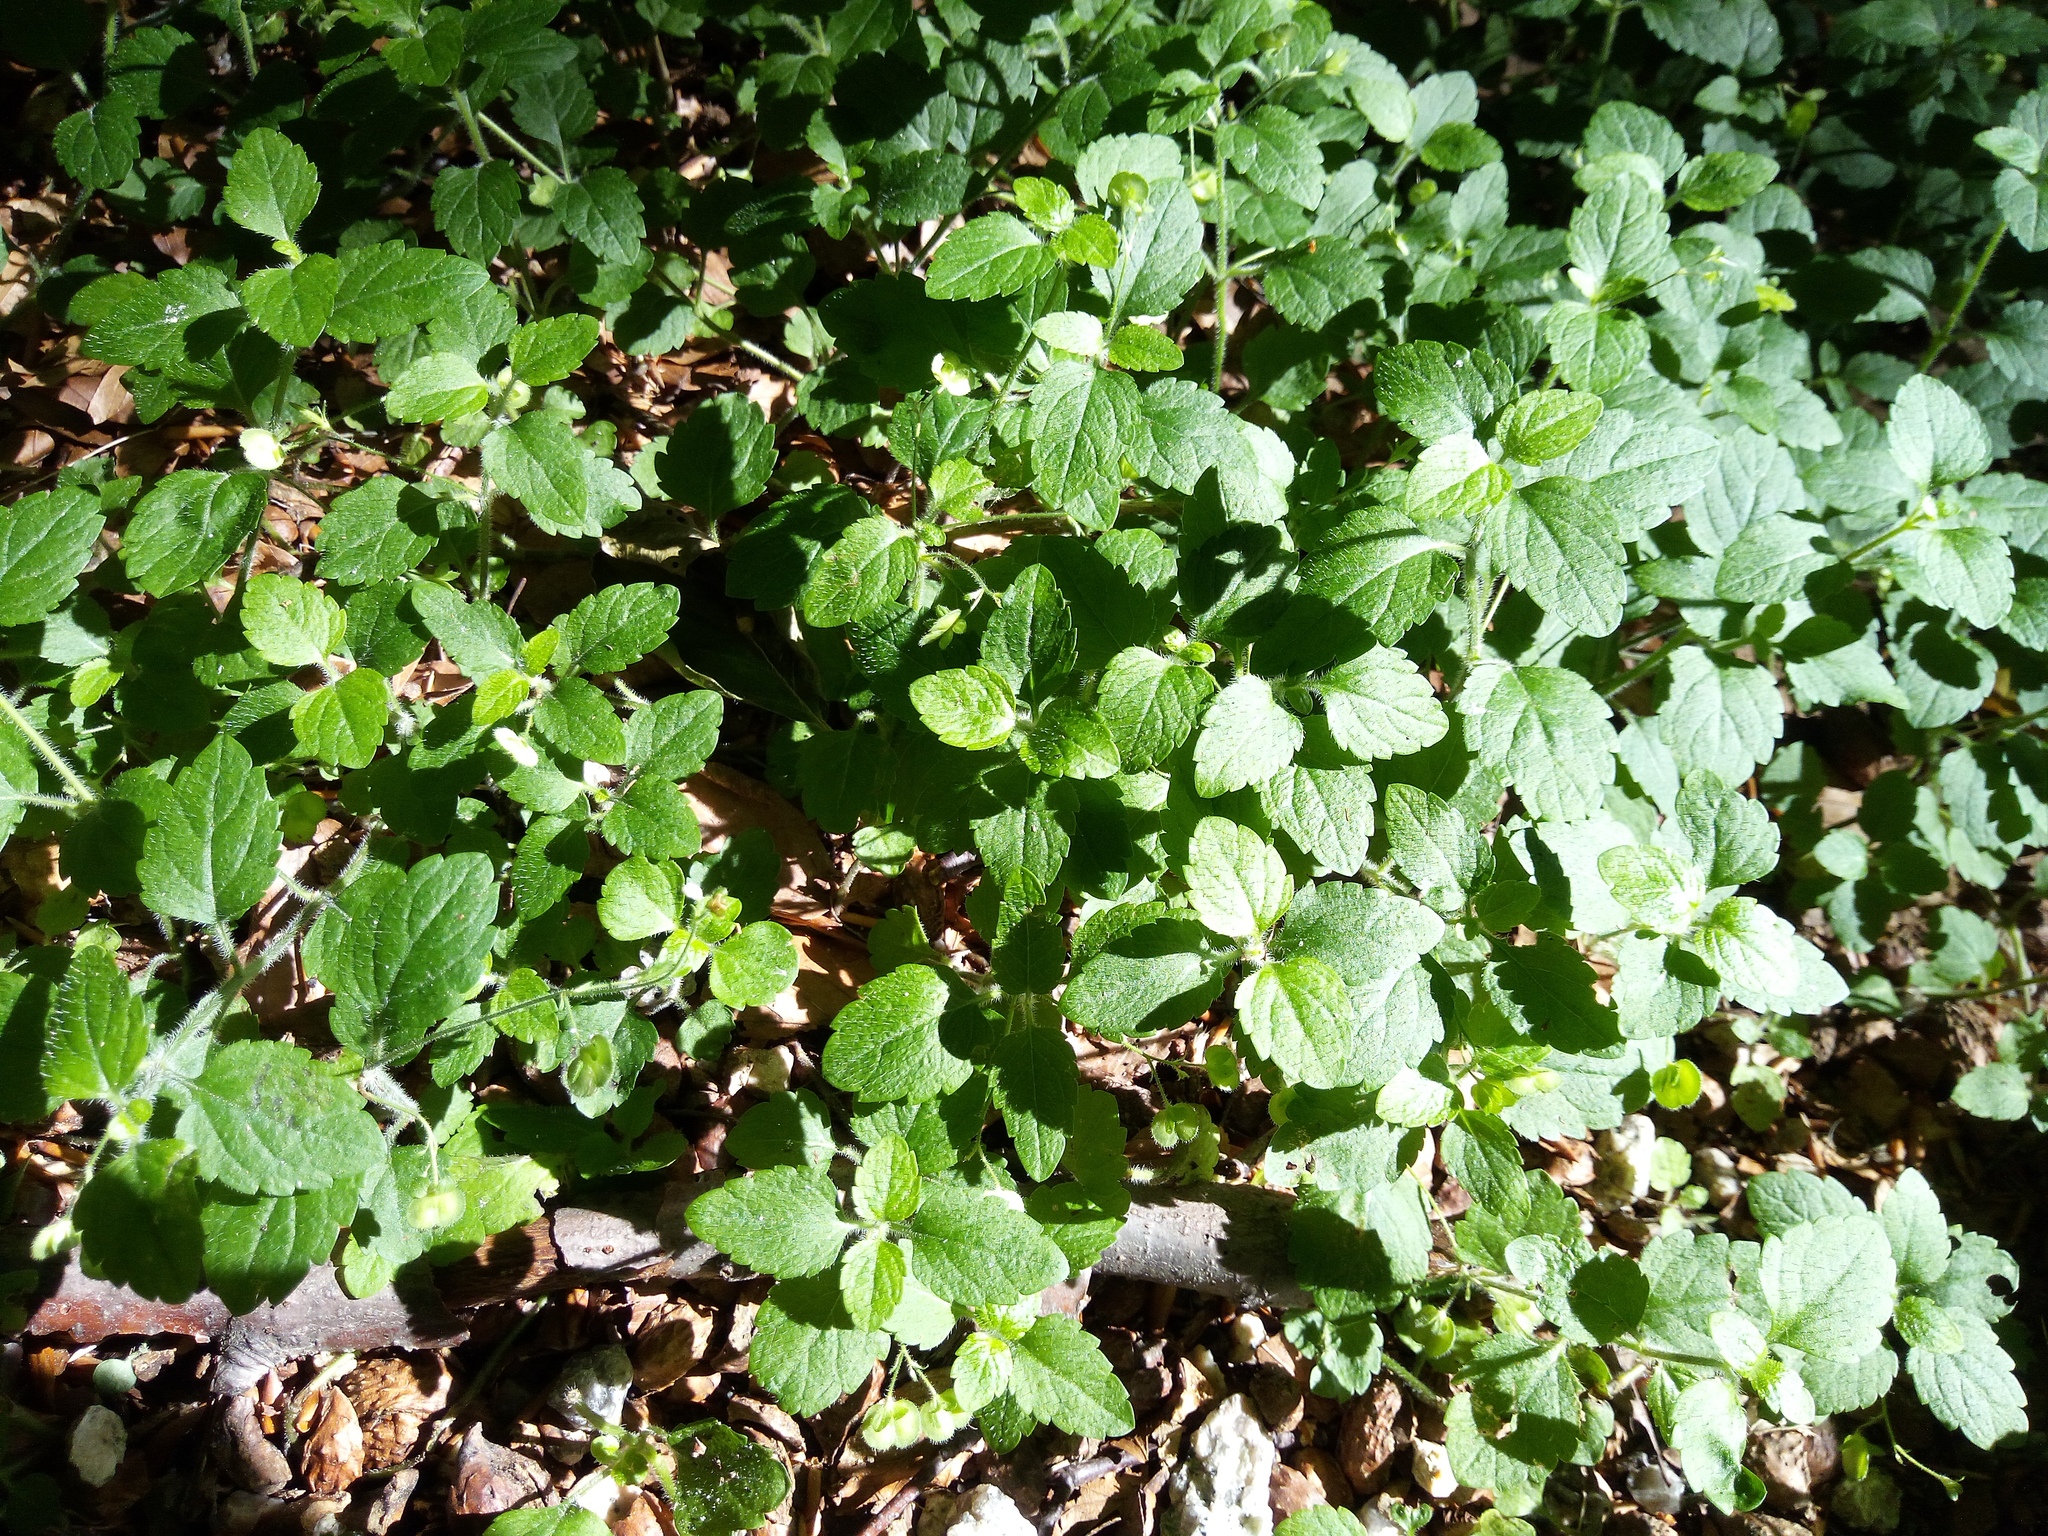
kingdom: Plantae
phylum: Tracheophyta
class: Magnoliopsida
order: Lamiales
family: Plantaginaceae
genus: Veronica
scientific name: Veronica montana
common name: Wood speedwell
